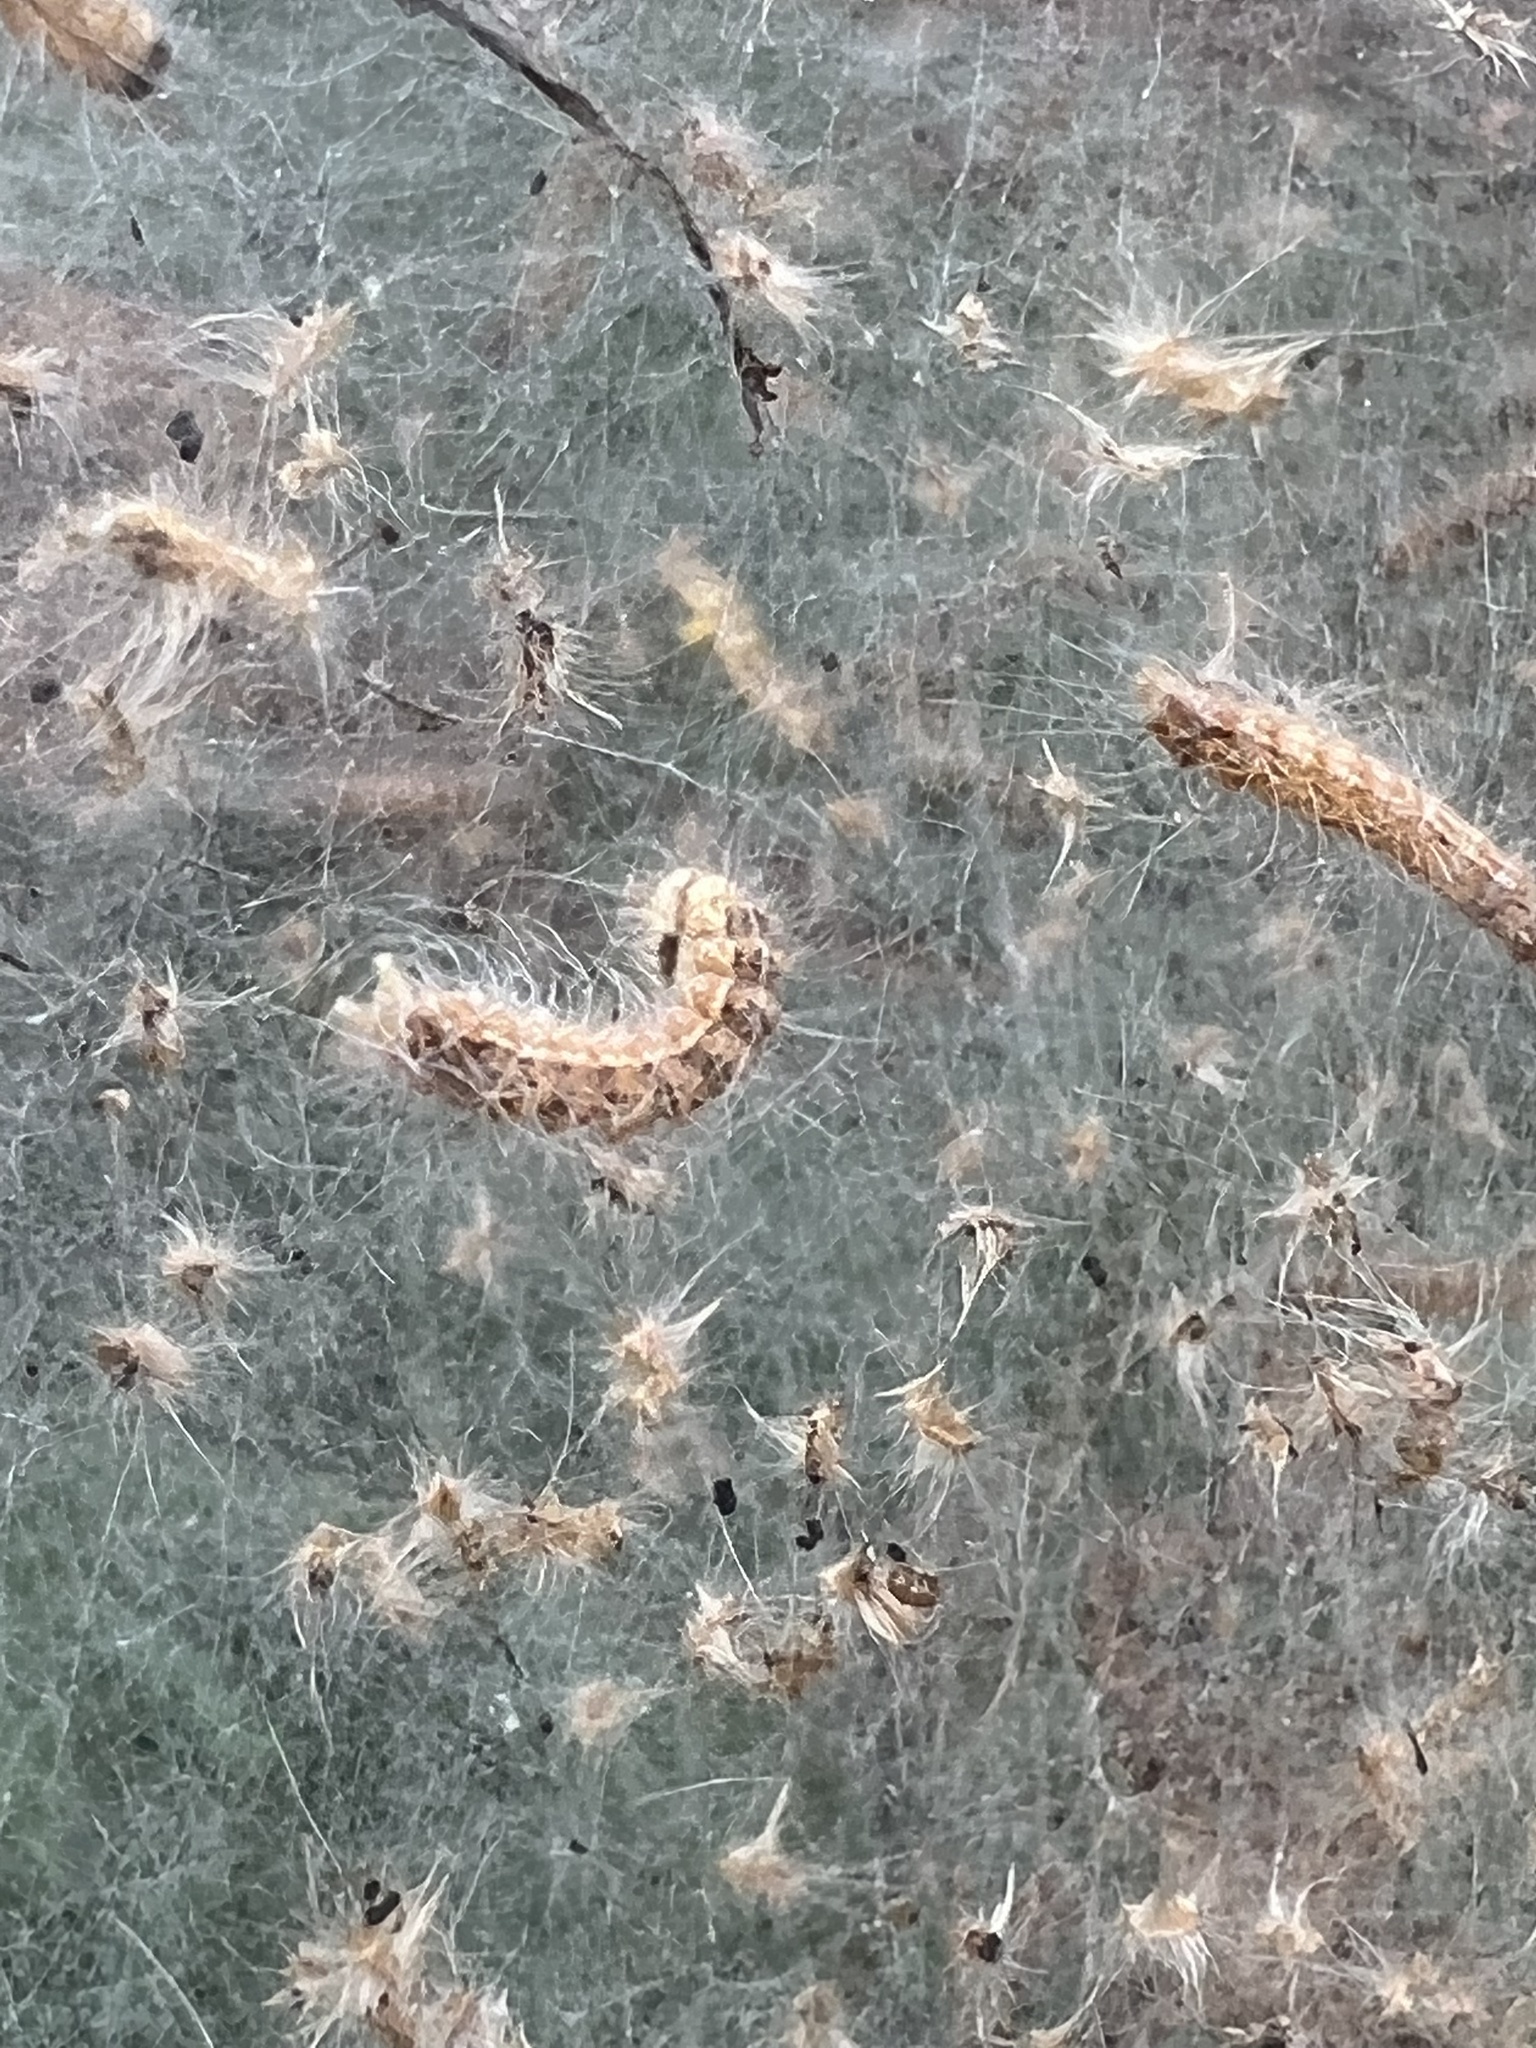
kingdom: Animalia
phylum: Arthropoda
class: Insecta
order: Lepidoptera
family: Erebidae
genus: Hyphantria
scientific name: Hyphantria cunea
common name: American white moth
